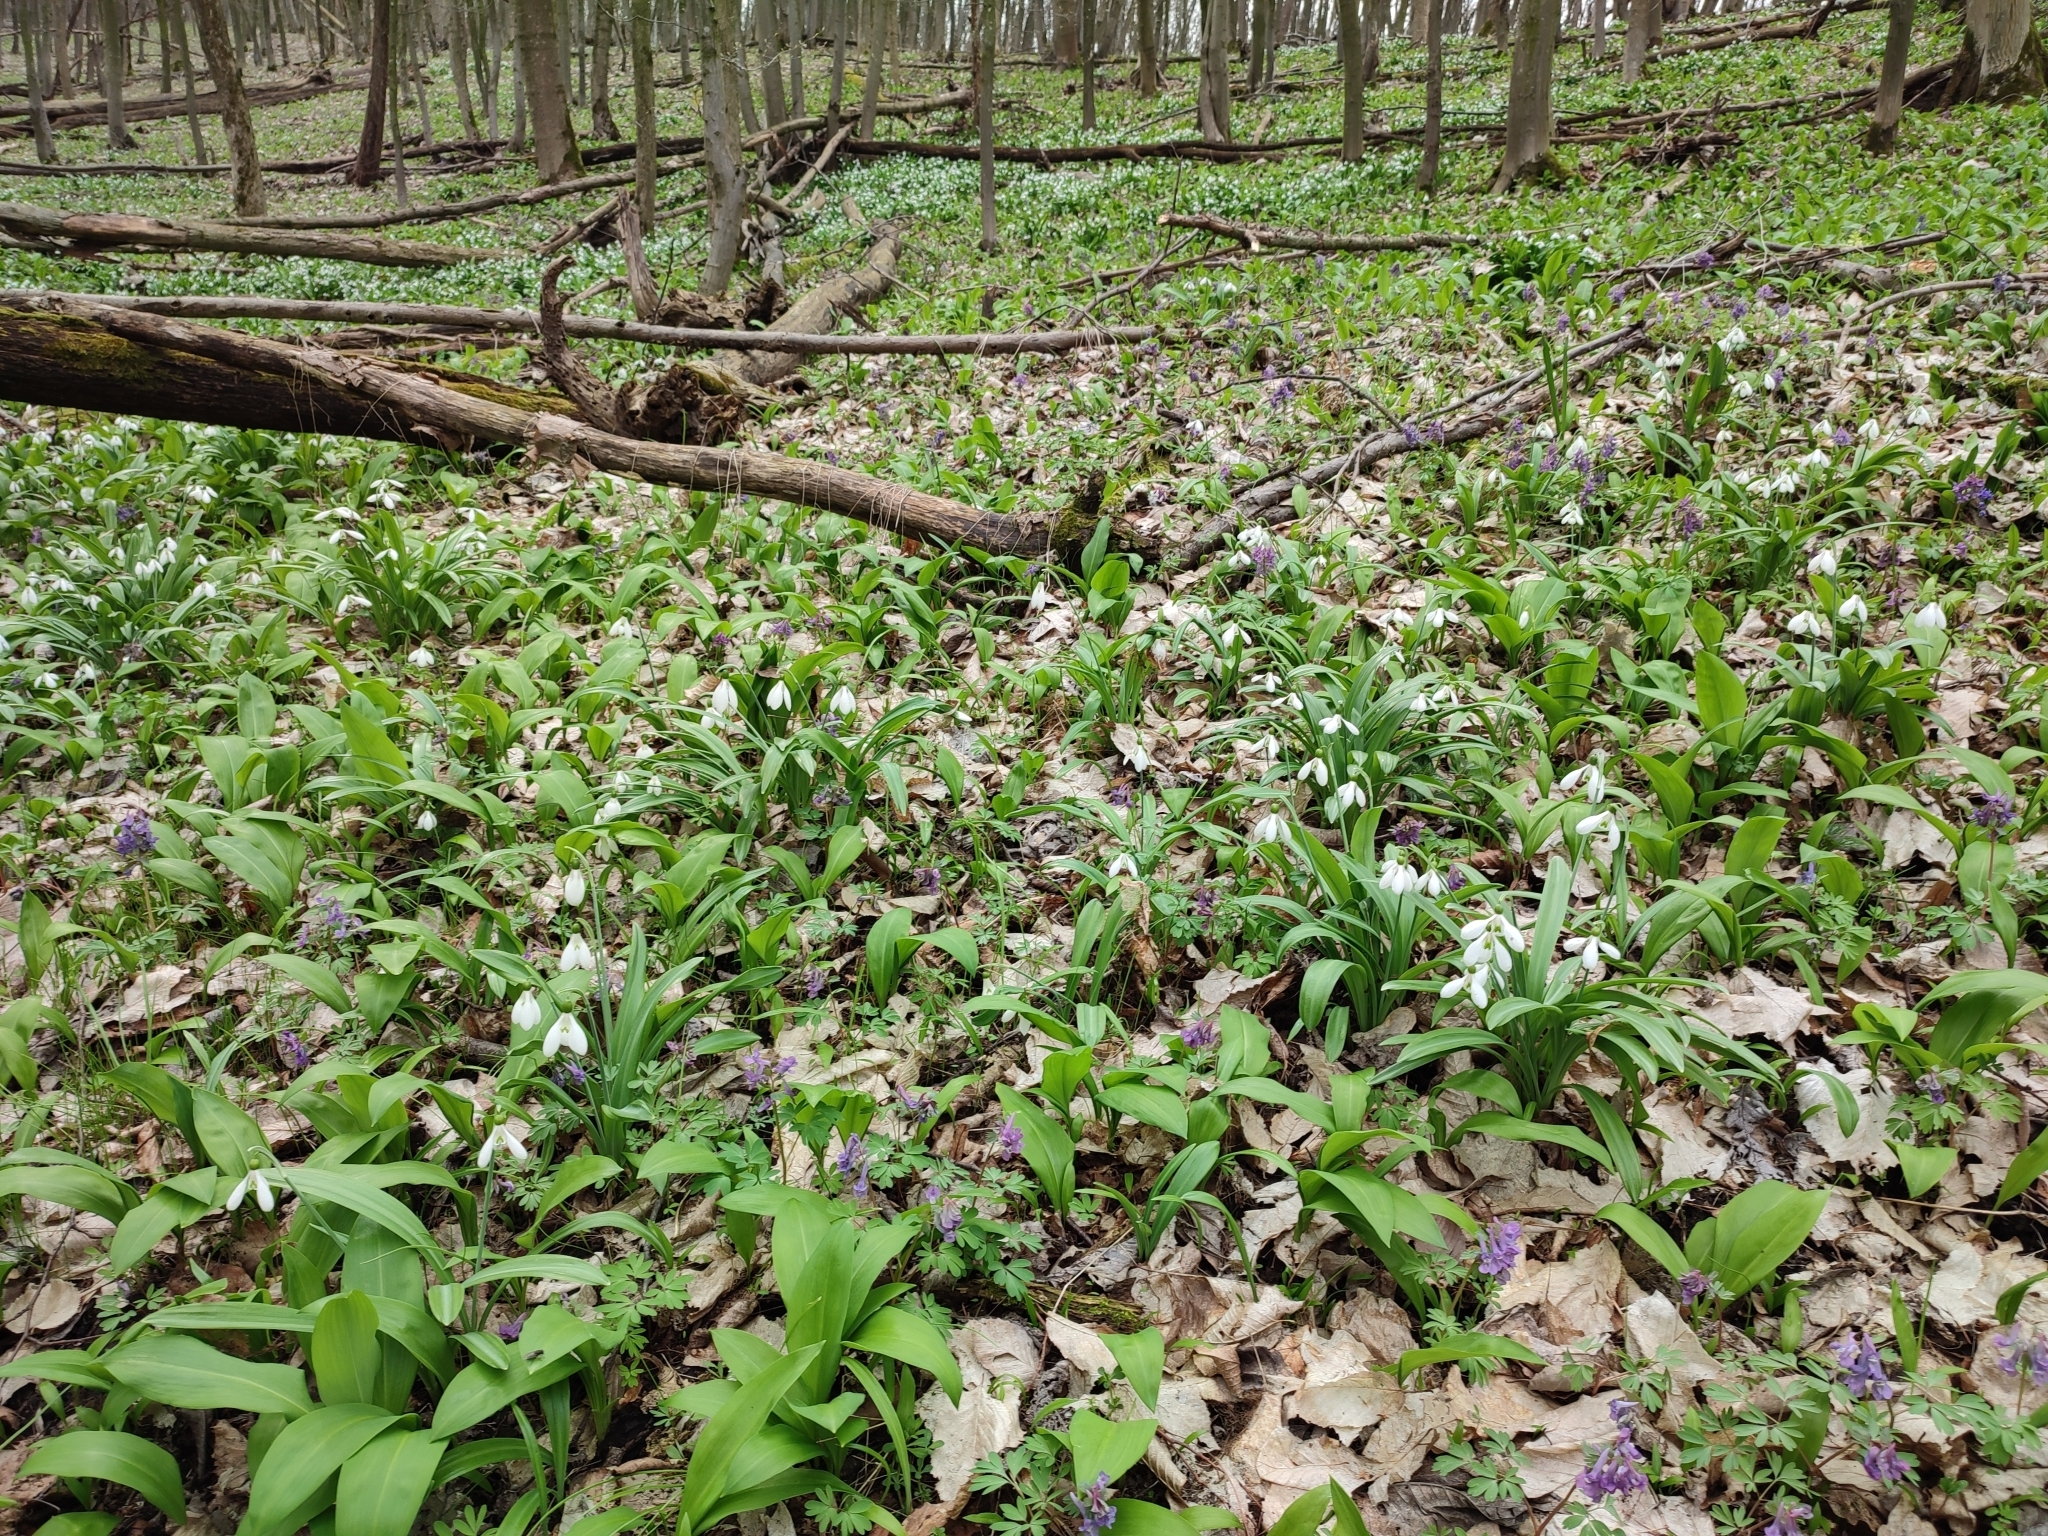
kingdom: Plantae
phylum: Tracheophyta
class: Liliopsida
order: Asparagales
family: Amaryllidaceae
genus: Galanthus
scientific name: Galanthus plicatus
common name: Pleated snowdrop
